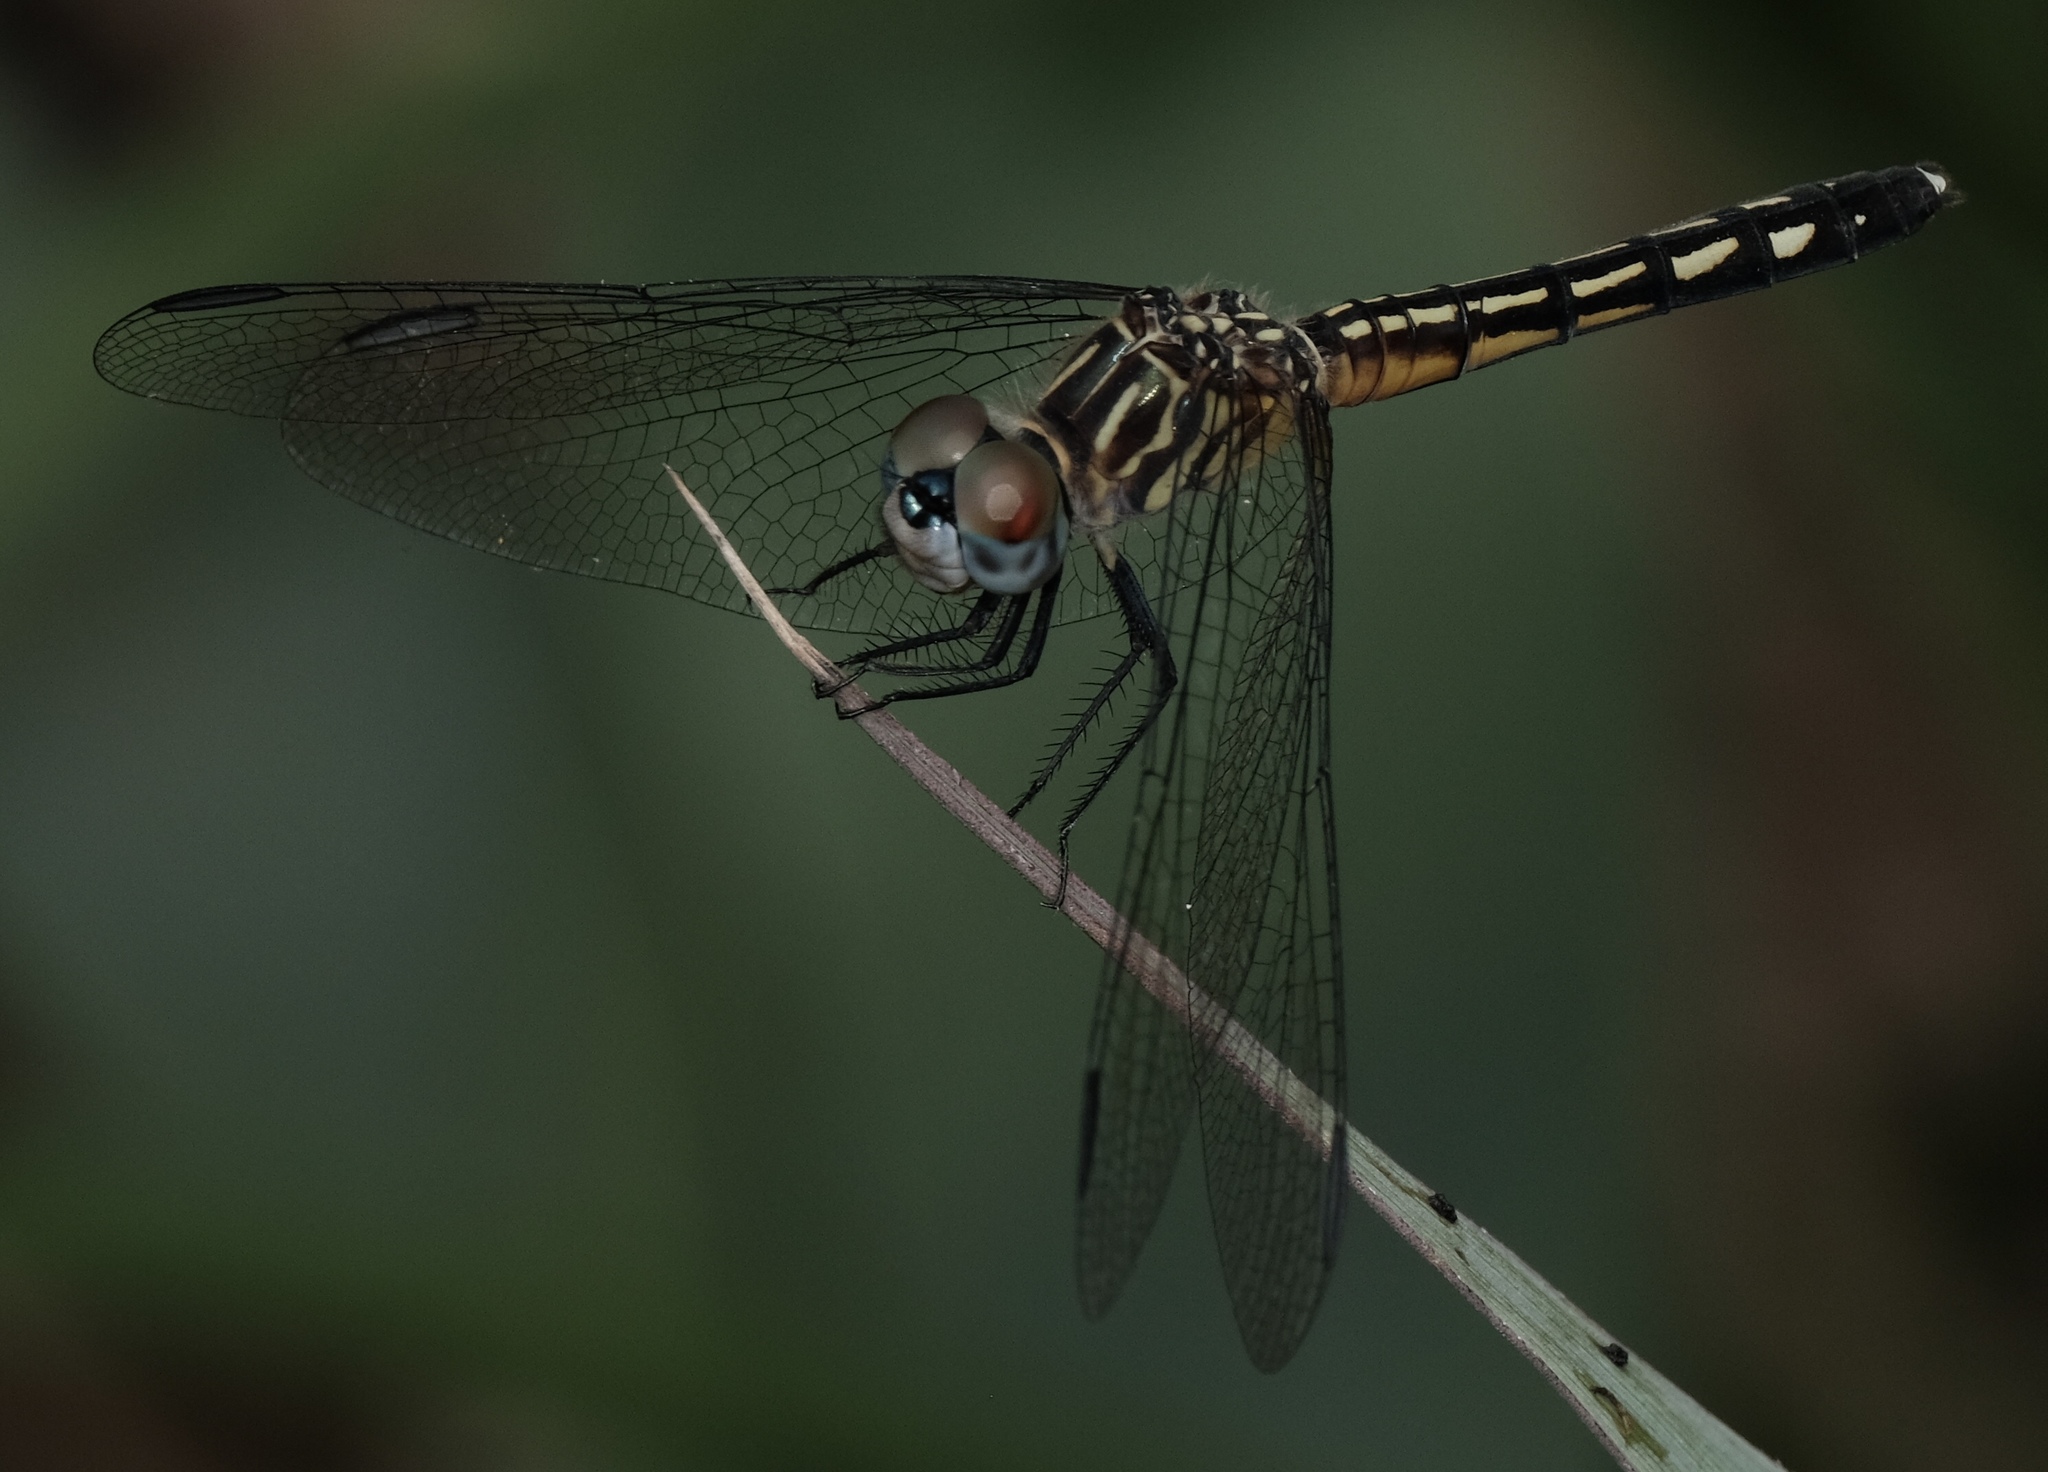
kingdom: Animalia
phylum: Arthropoda
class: Insecta
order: Odonata
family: Libellulidae
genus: Pachydiplax
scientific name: Pachydiplax longipennis
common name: Blue dasher
